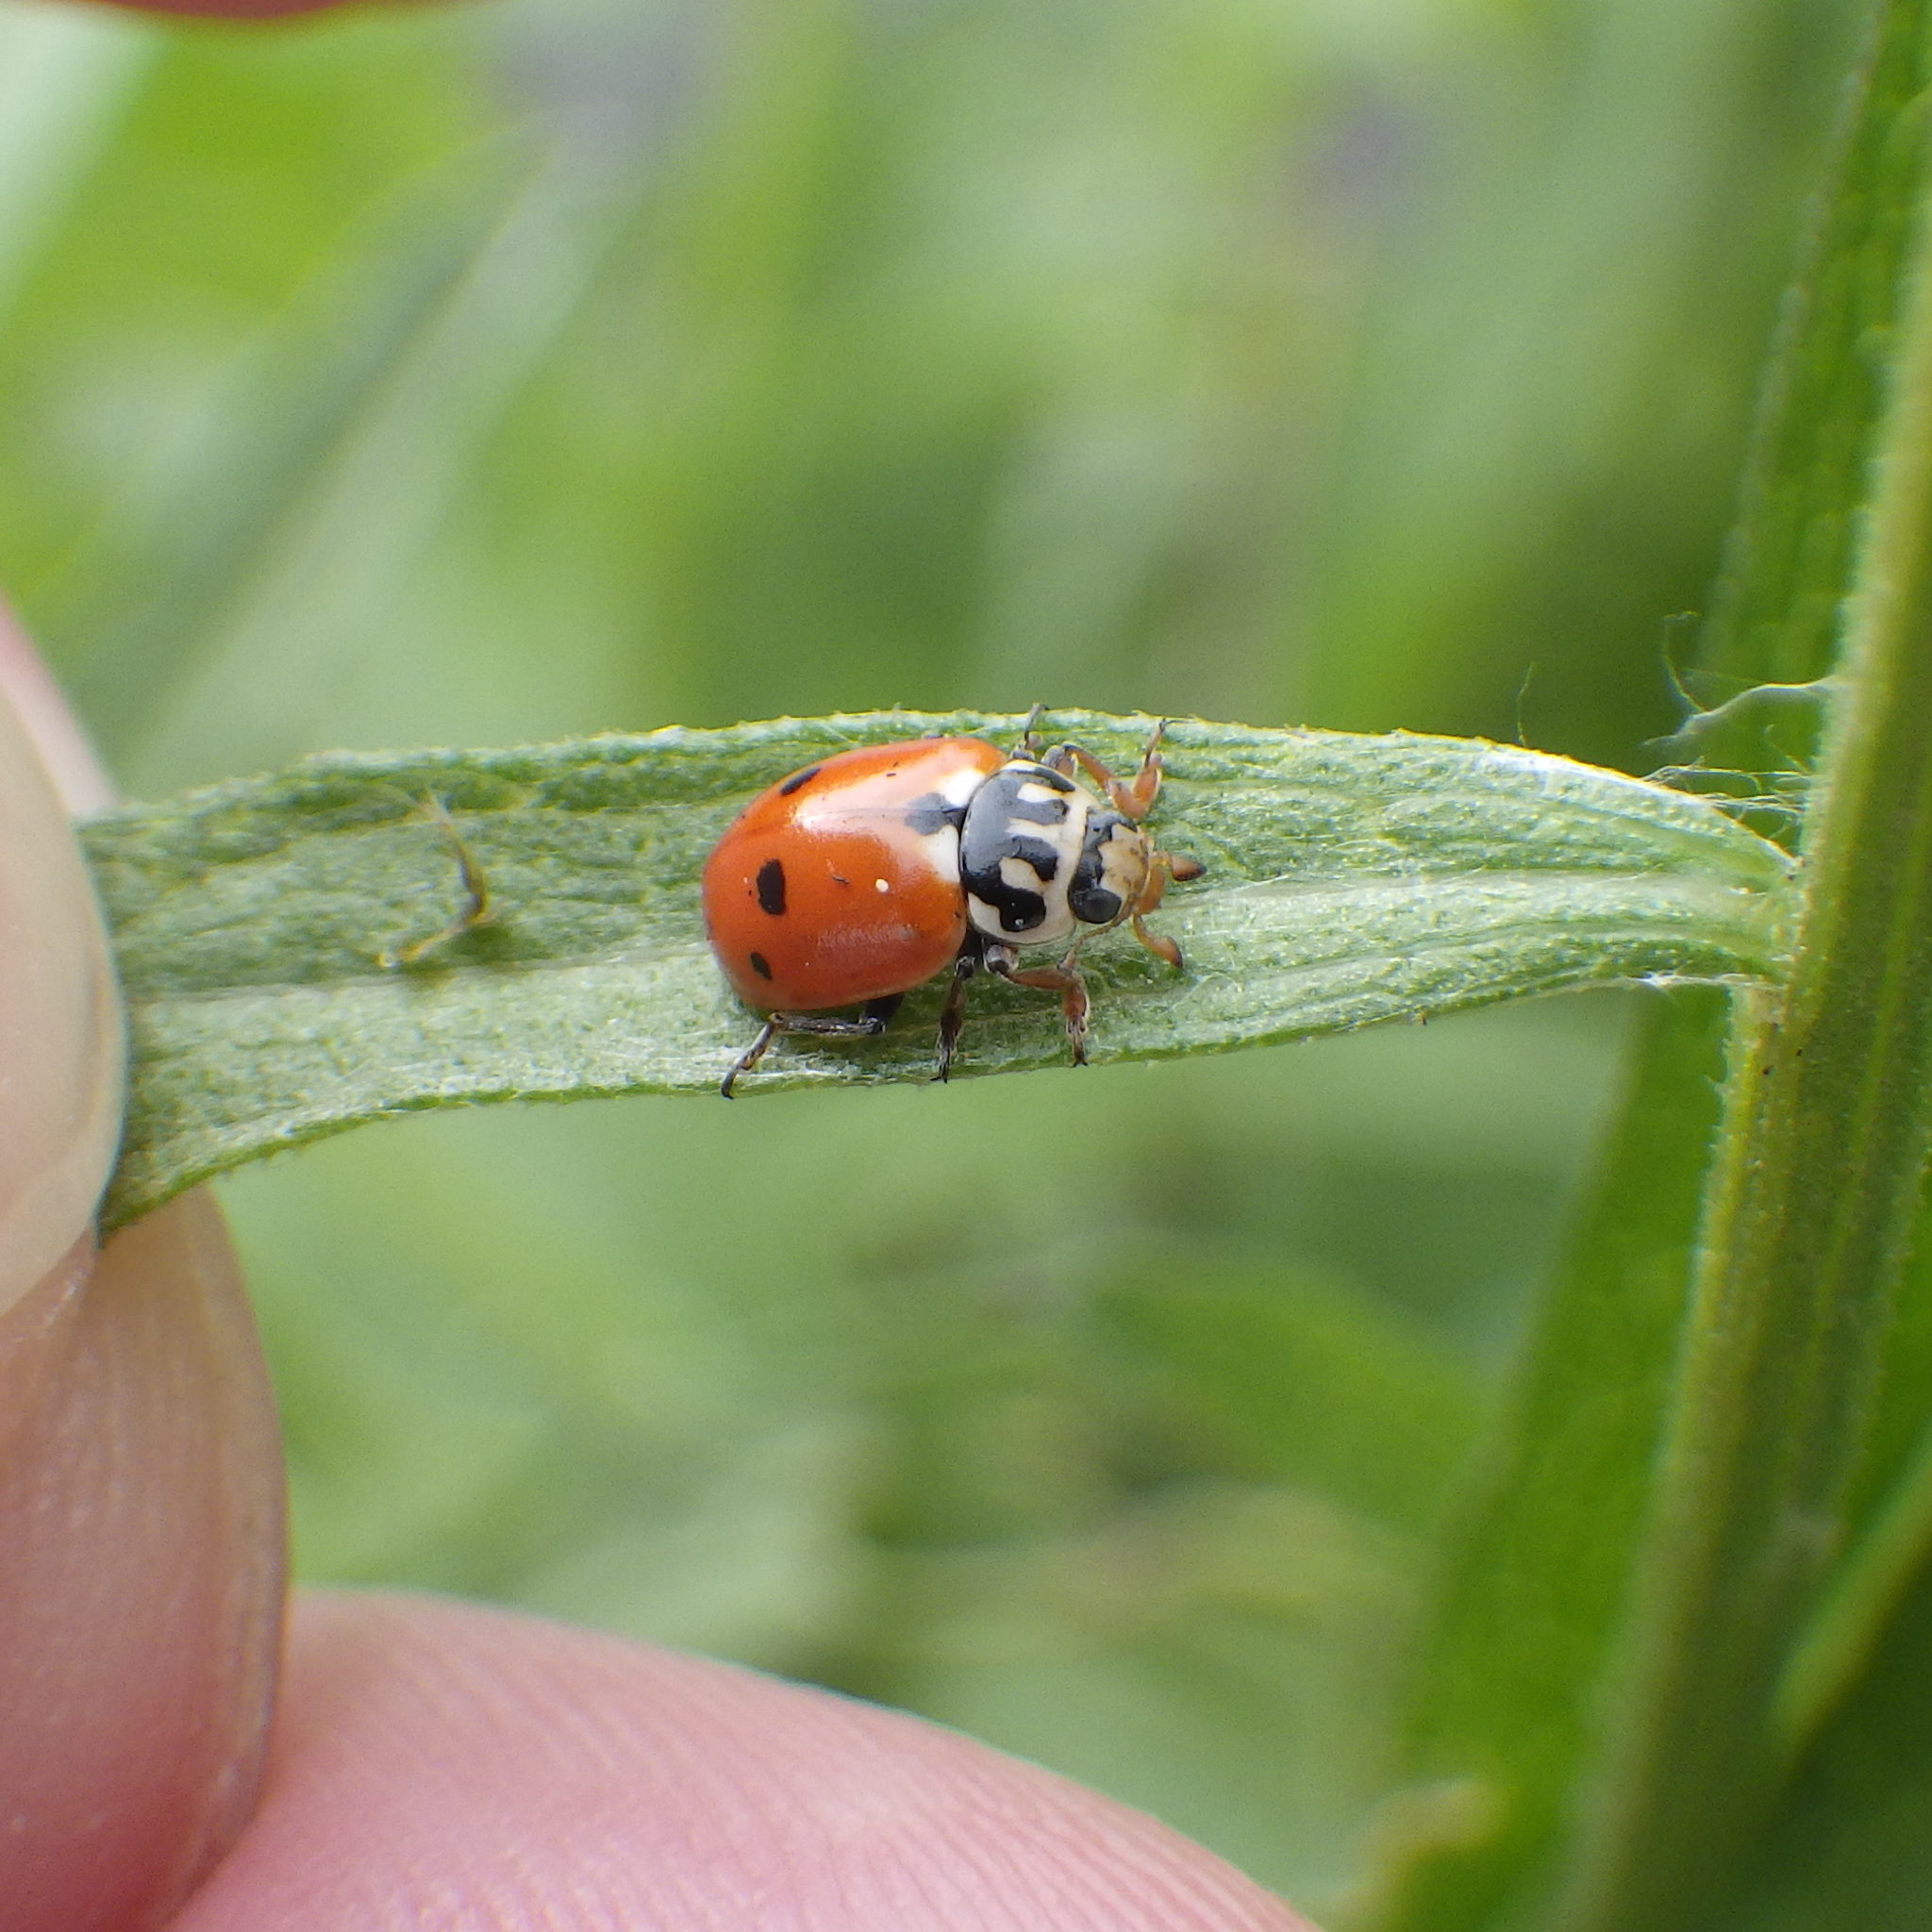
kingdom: Animalia
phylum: Arthropoda
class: Insecta
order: Coleoptera
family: Coccinellidae
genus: Hippodamia
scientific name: Hippodamia variegata
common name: Ladybird beetle
